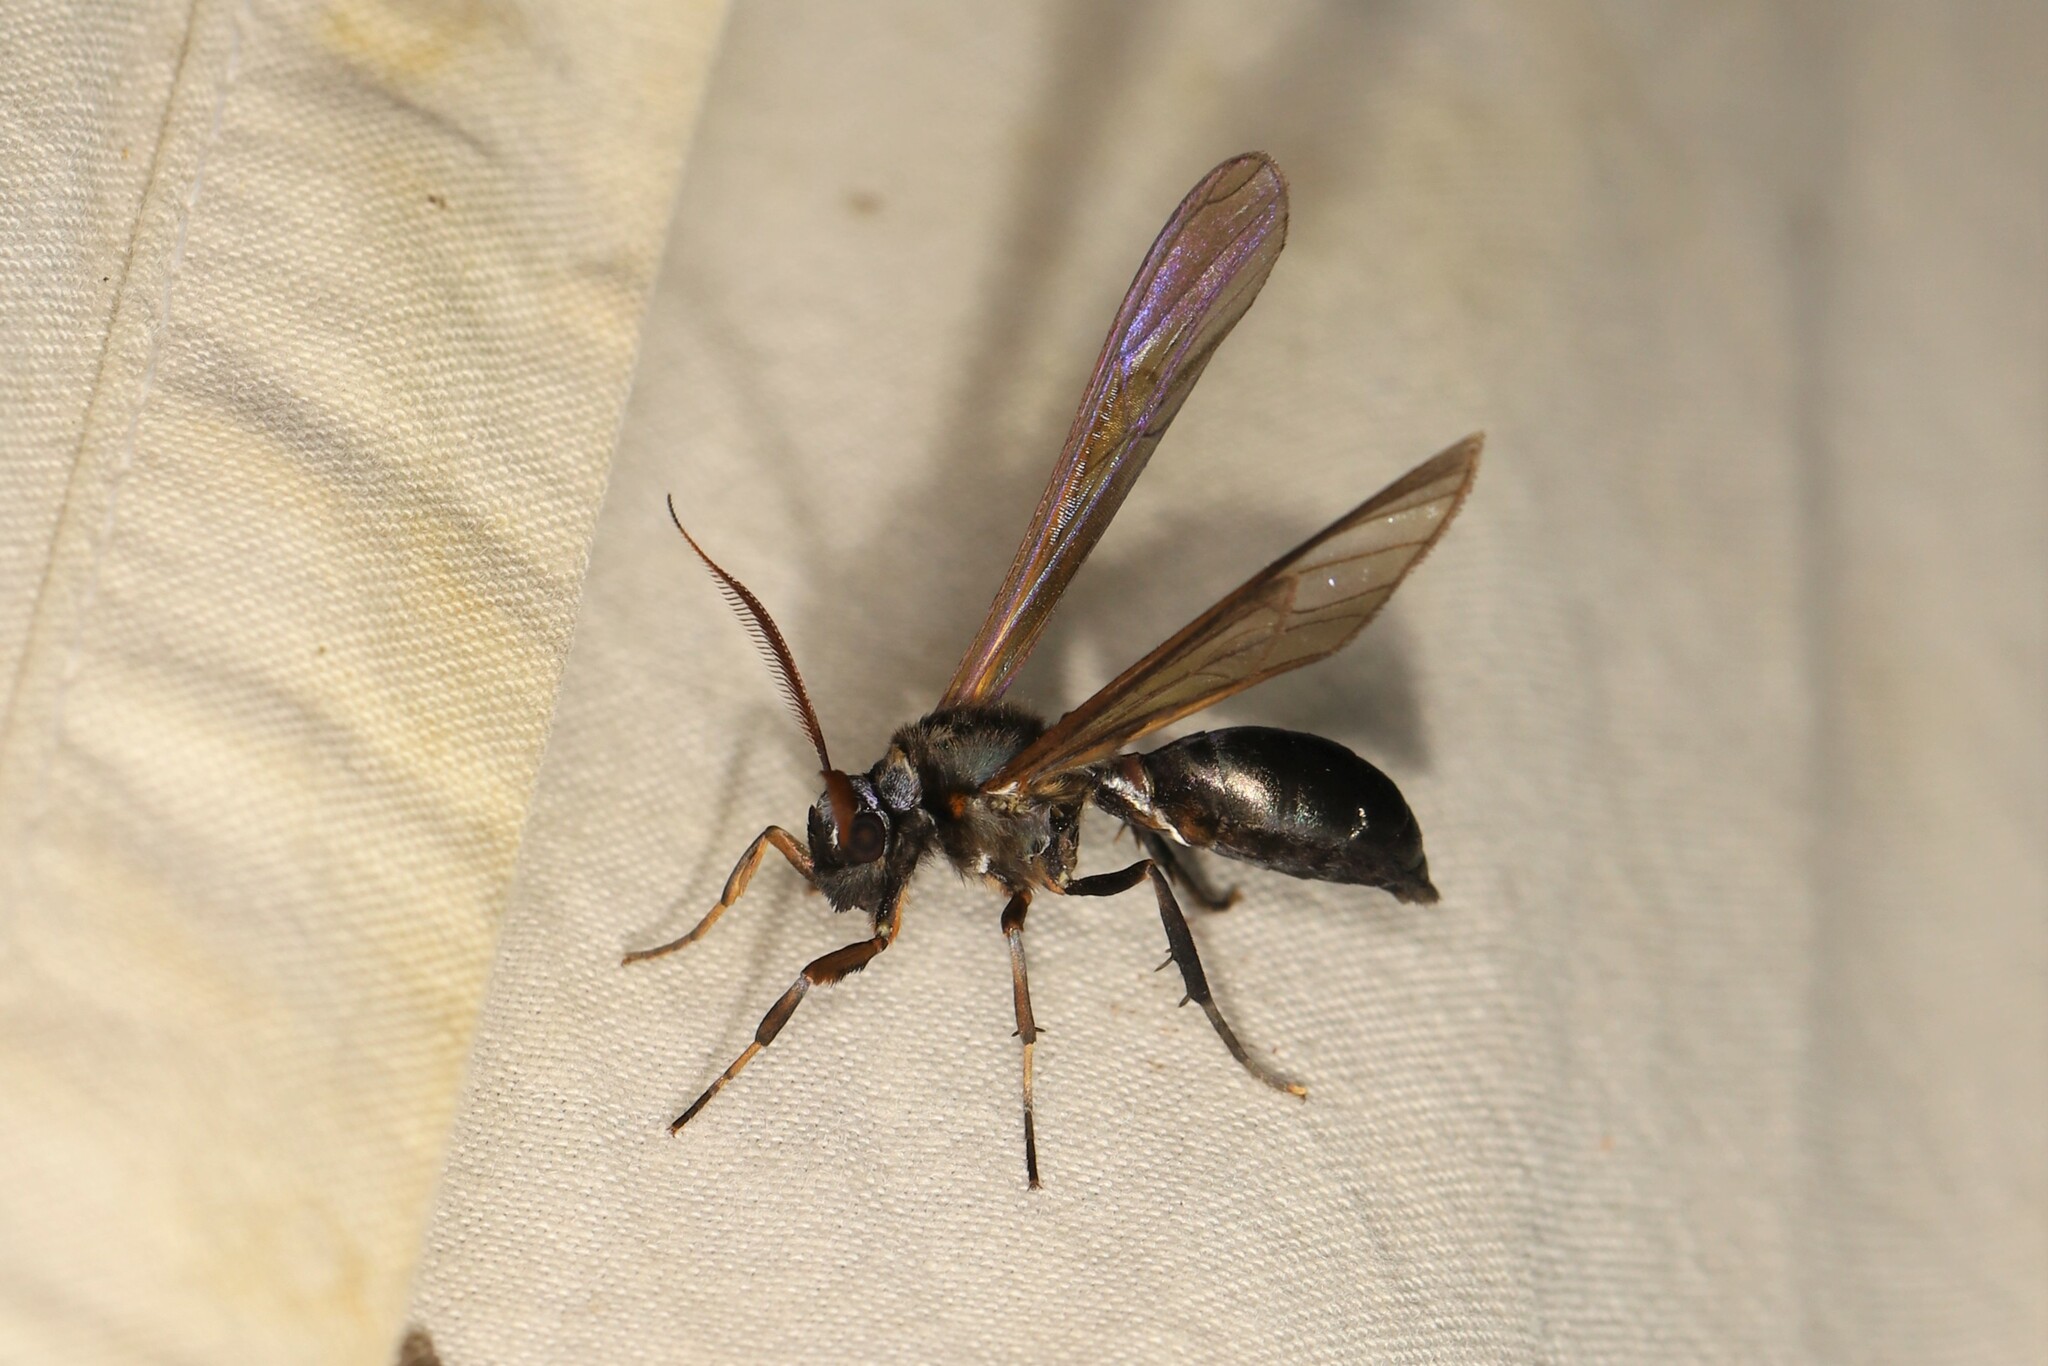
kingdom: Animalia
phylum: Arthropoda
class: Insecta
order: Lepidoptera
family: Erebidae
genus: Pseudosphex
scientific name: Pseudosphex ichneumonea
